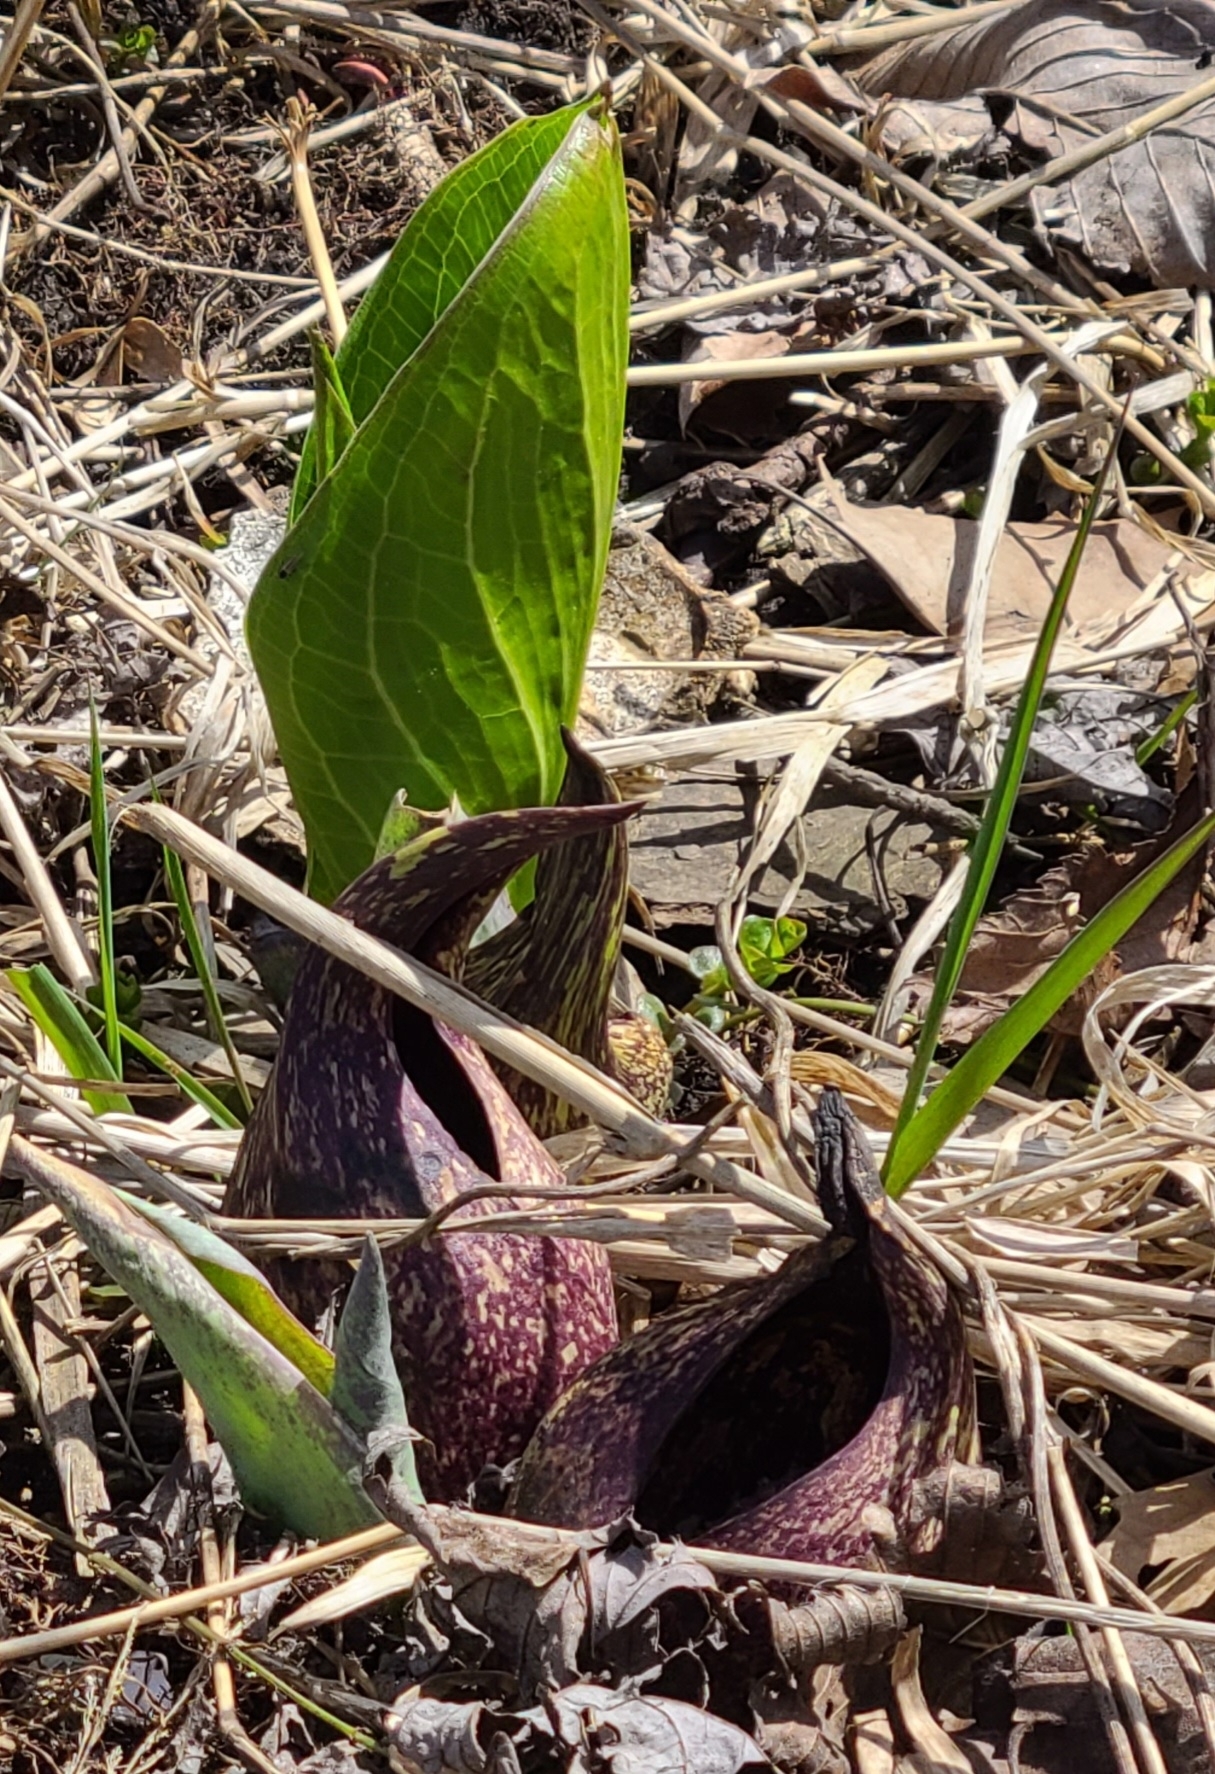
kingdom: Plantae
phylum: Tracheophyta
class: Liliopsida
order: Alismatales
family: Araceae
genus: Symplocarpus
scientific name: Symplocarpus foetidus
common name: Eastern skunk cabbage
